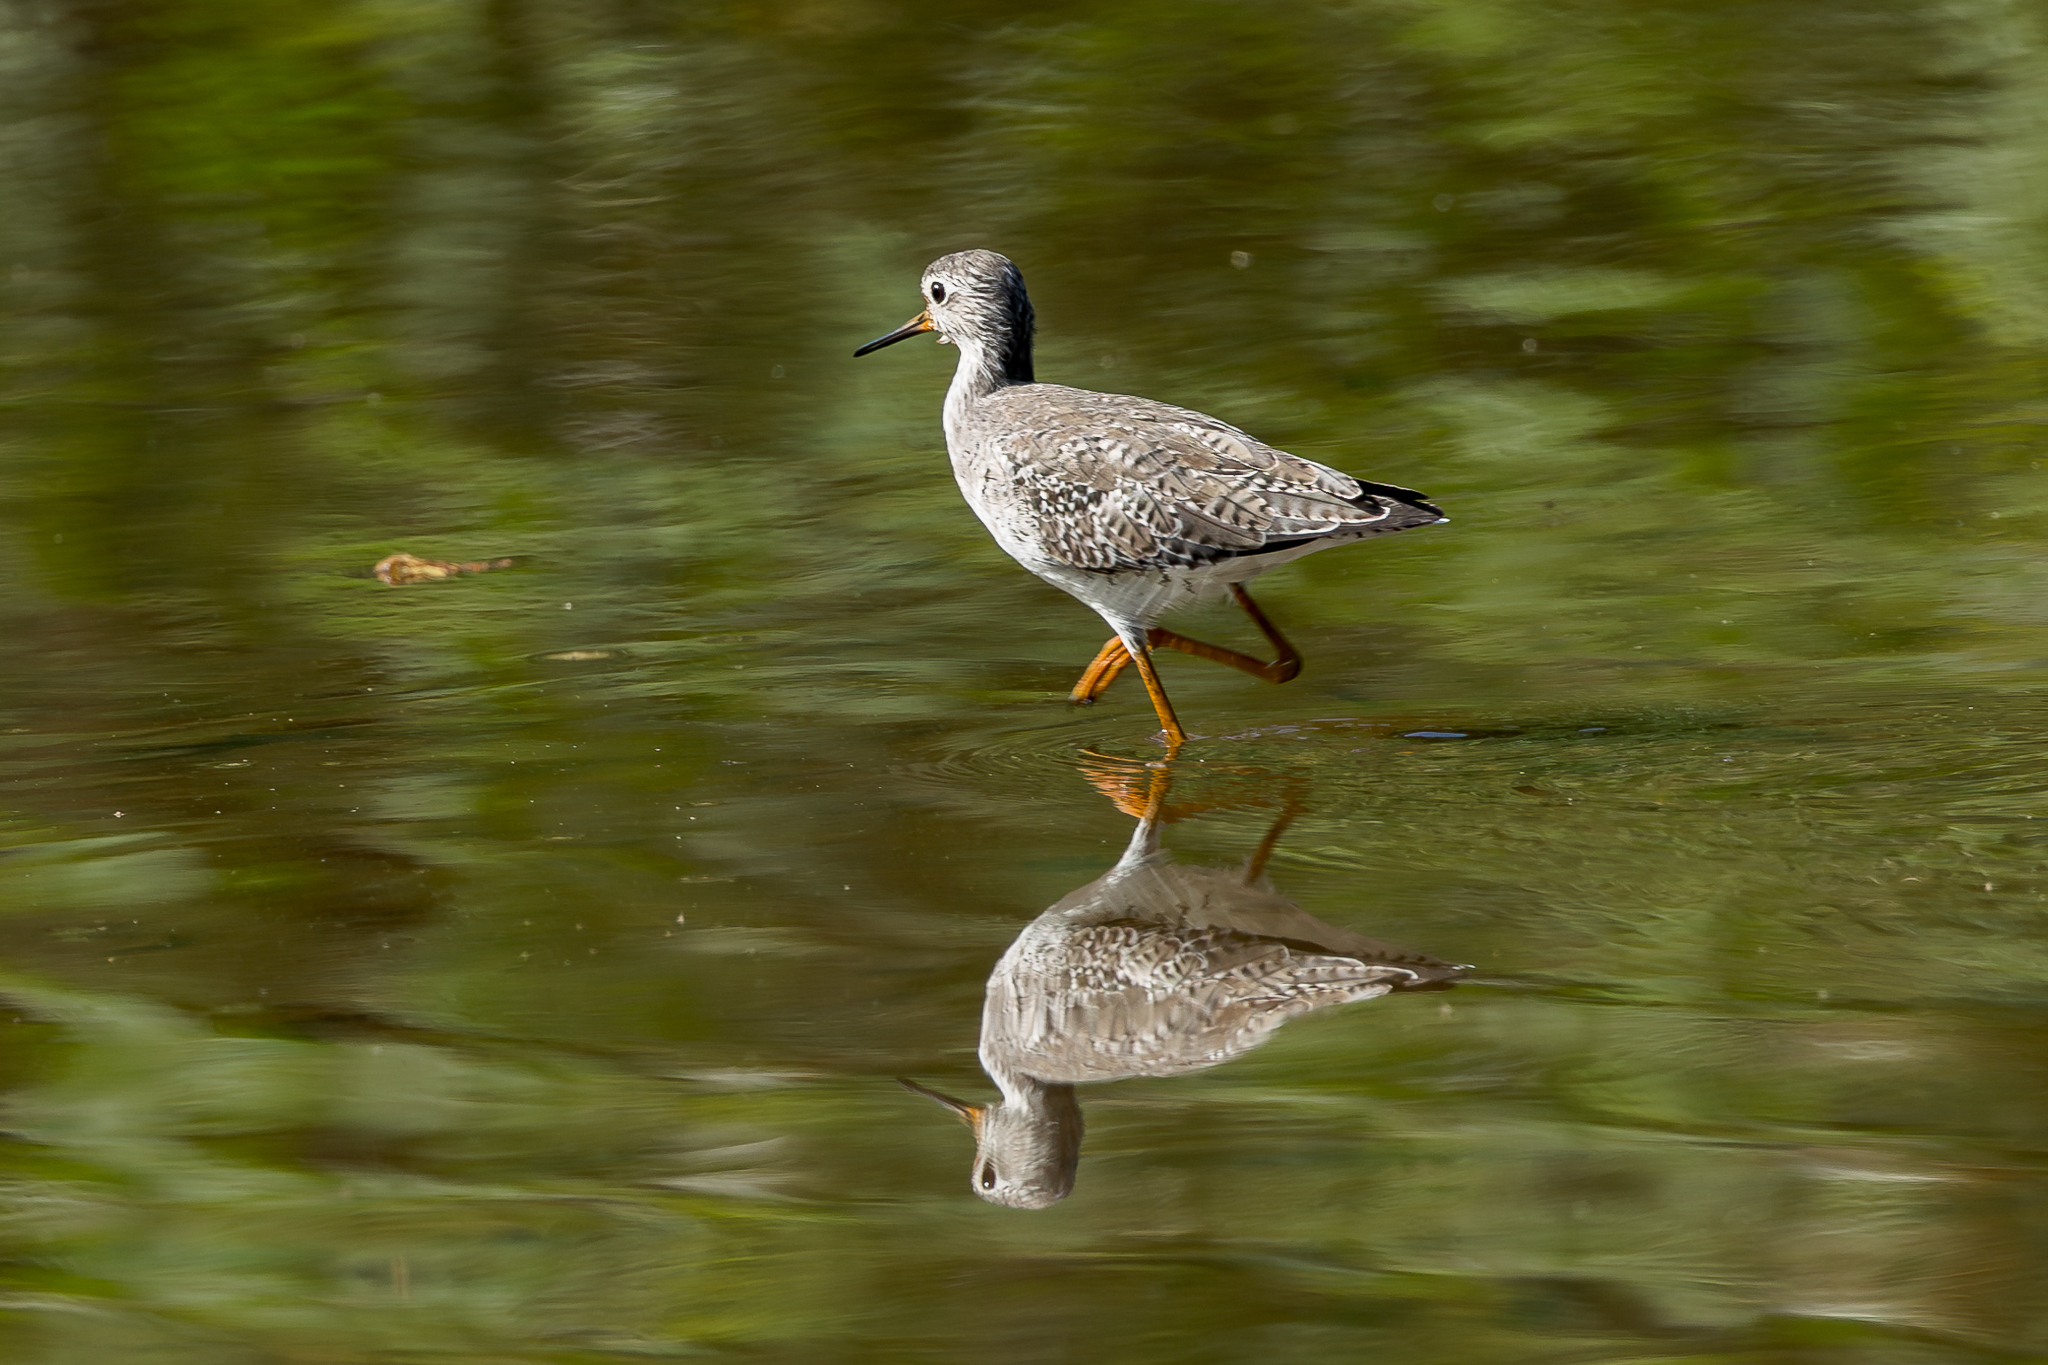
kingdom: Animalia
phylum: Chordata
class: Aves
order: Charadriiformes
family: Scolopacidae
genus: Tringa
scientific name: Tringa flavipes
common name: Lesser yellowlegs
